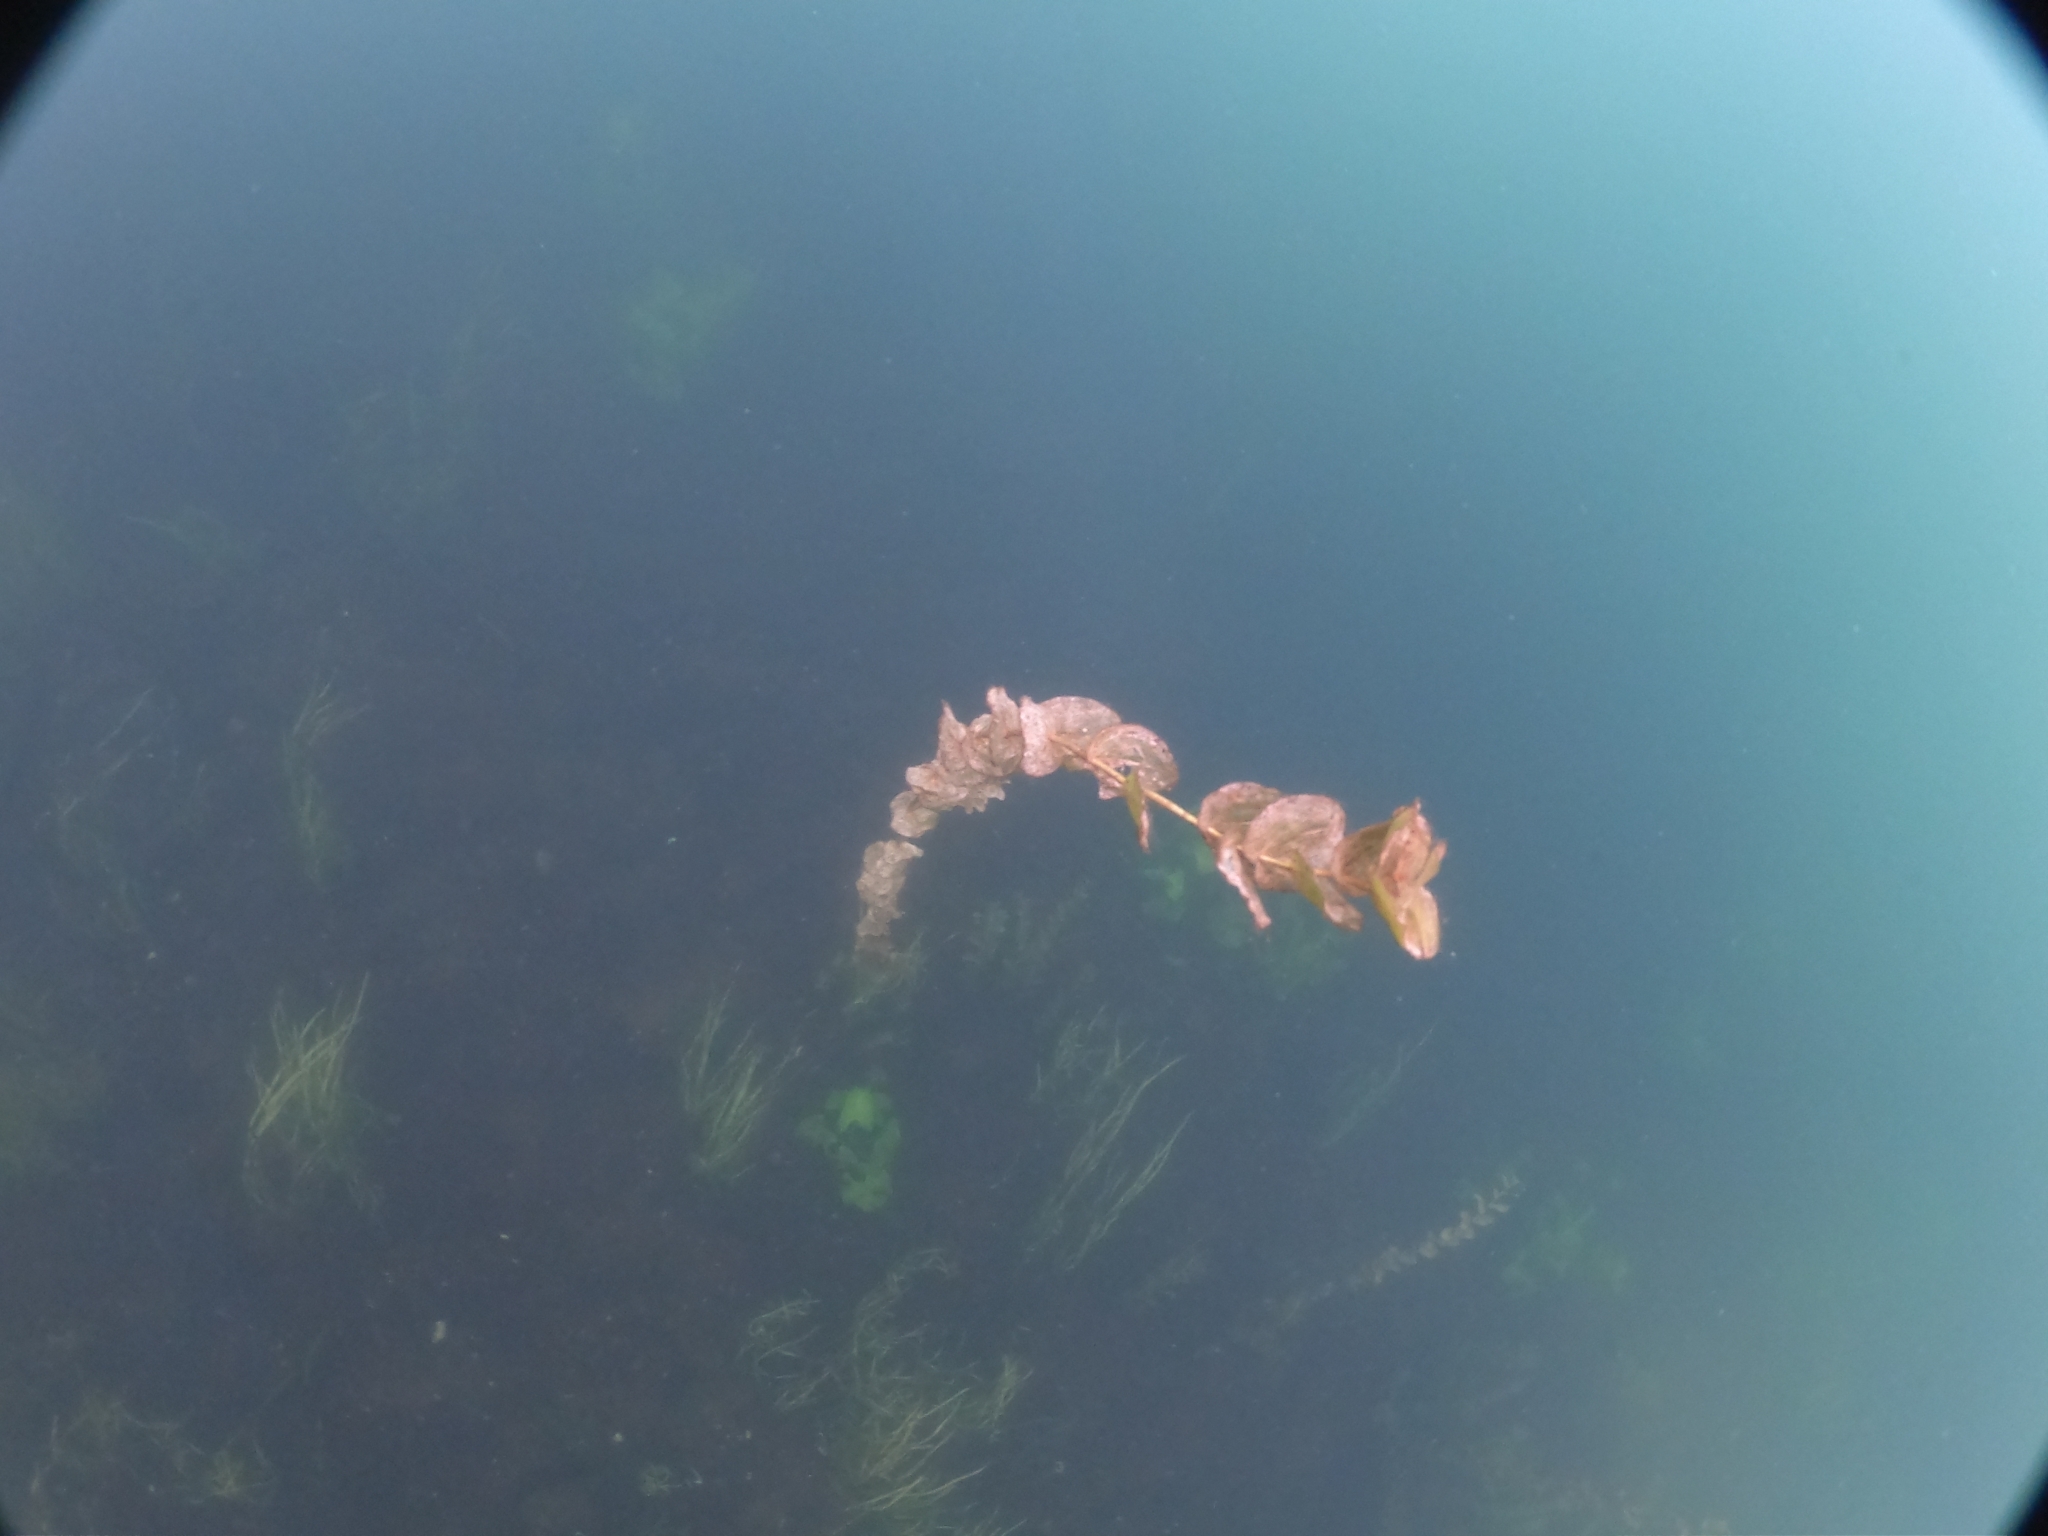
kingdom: Plantae
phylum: Tracheophyta
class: Liliopsida
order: Alismatales
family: Potamogetonaceae
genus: Potamogeton
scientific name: Potamogeton perfoliatus
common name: Perfoliate pondweed
